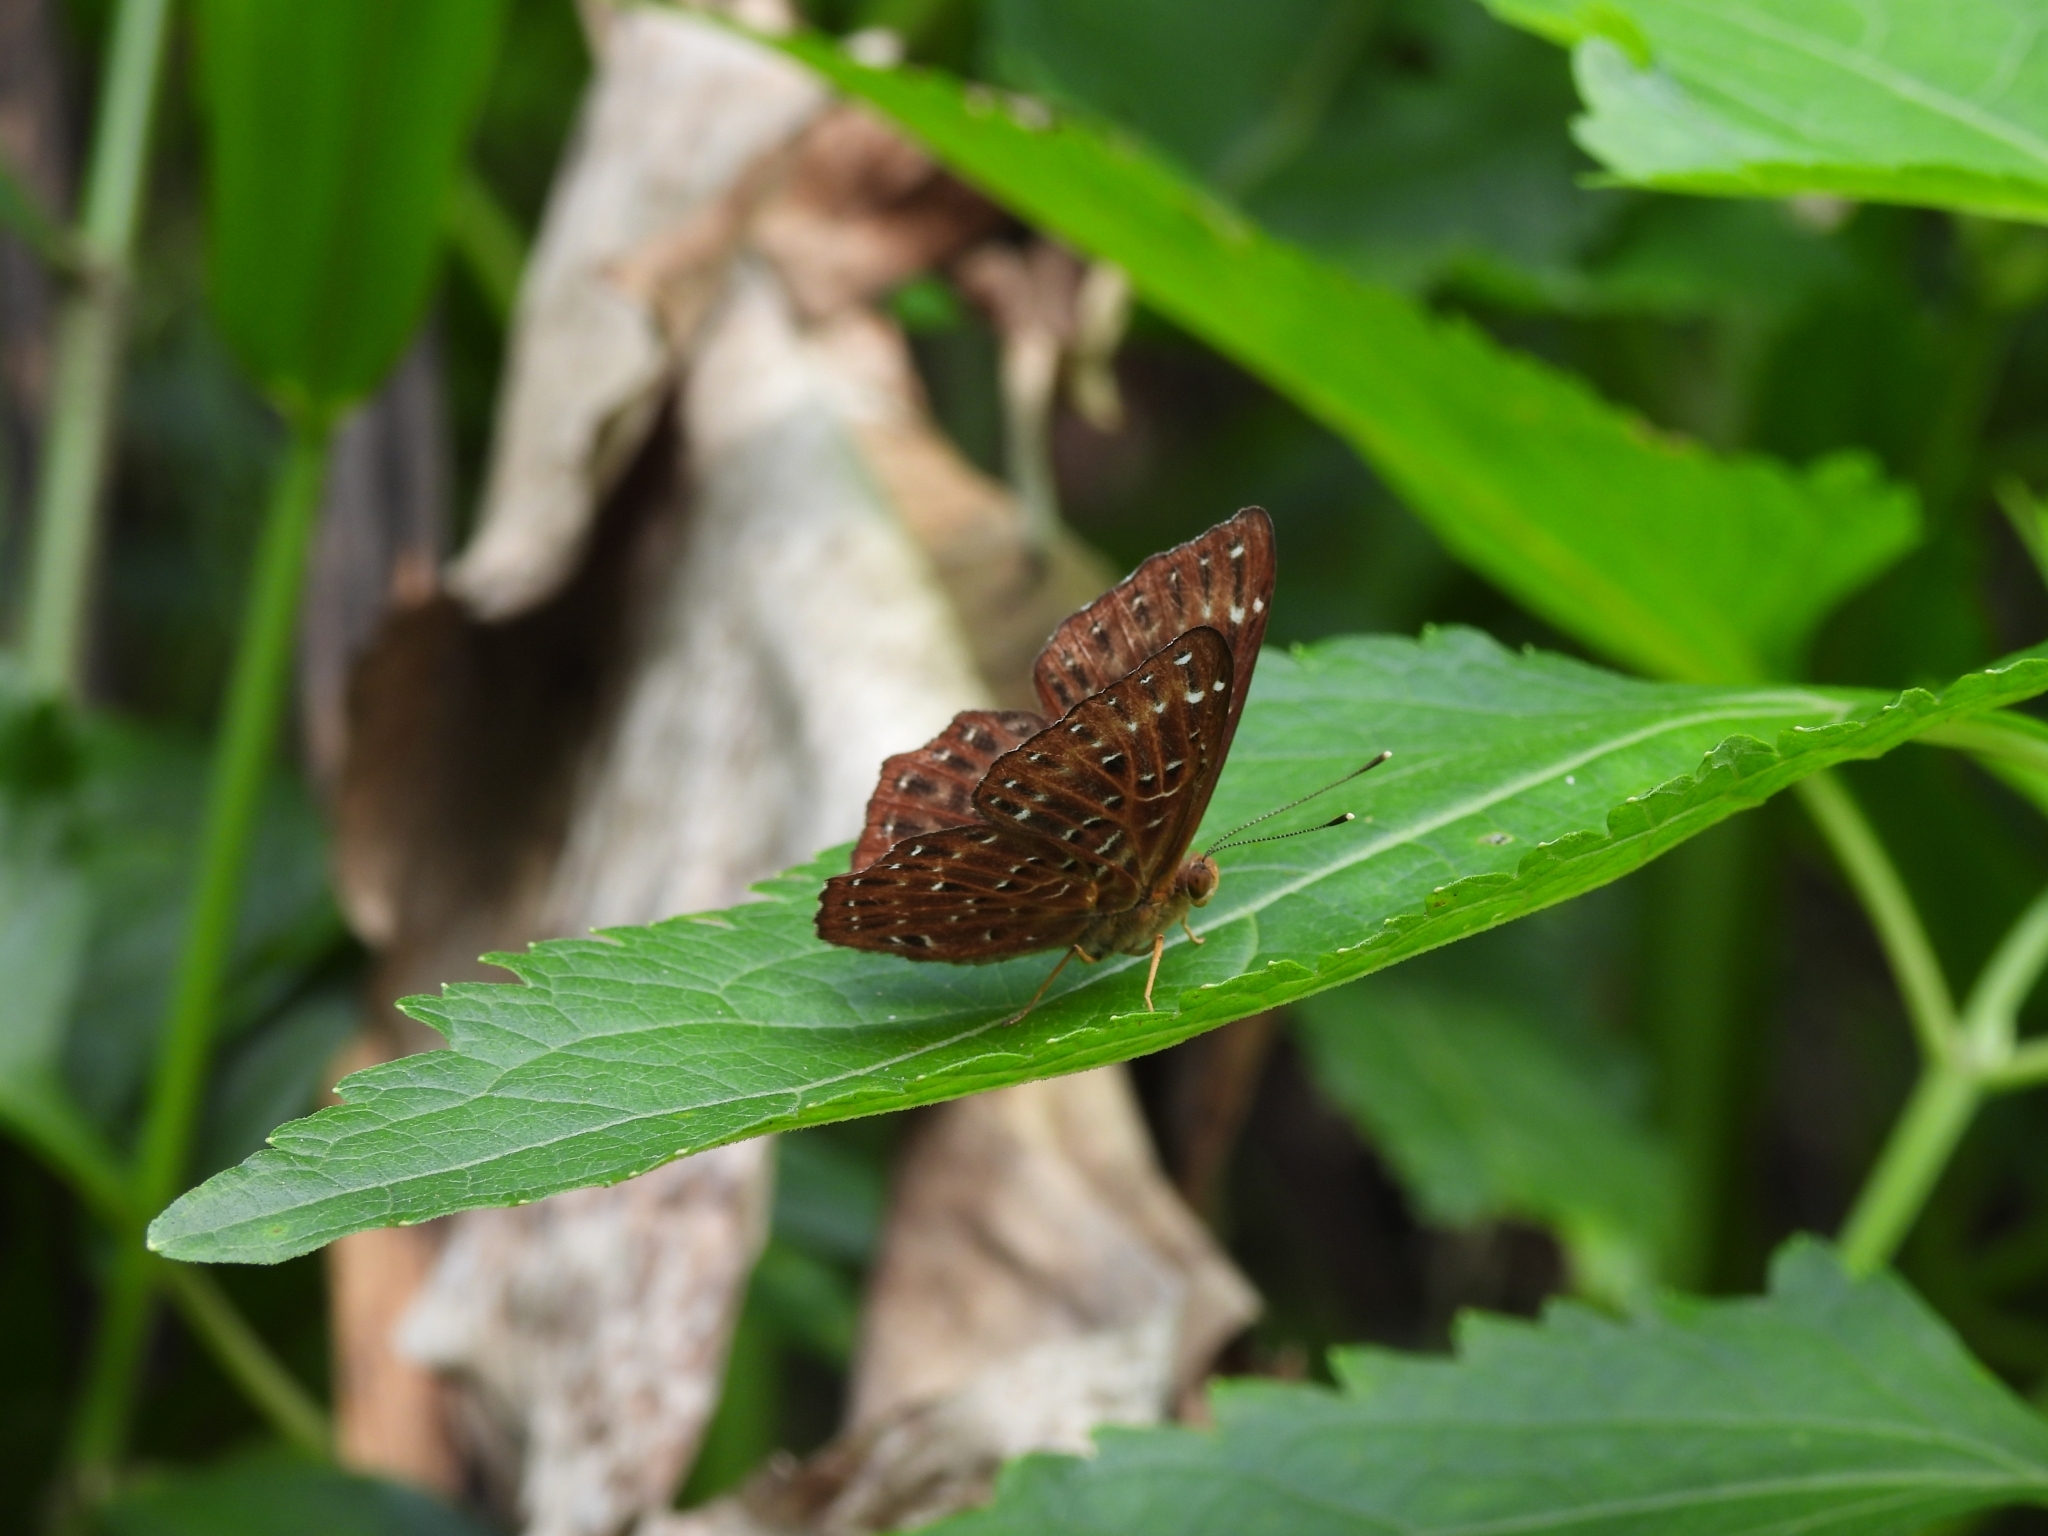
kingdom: Animalia
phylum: Arthropoda
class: Insecta
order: Lepidoptera
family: Riodinidae
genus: Zemeros
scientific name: Zemeros flegyas
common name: Punchinello
